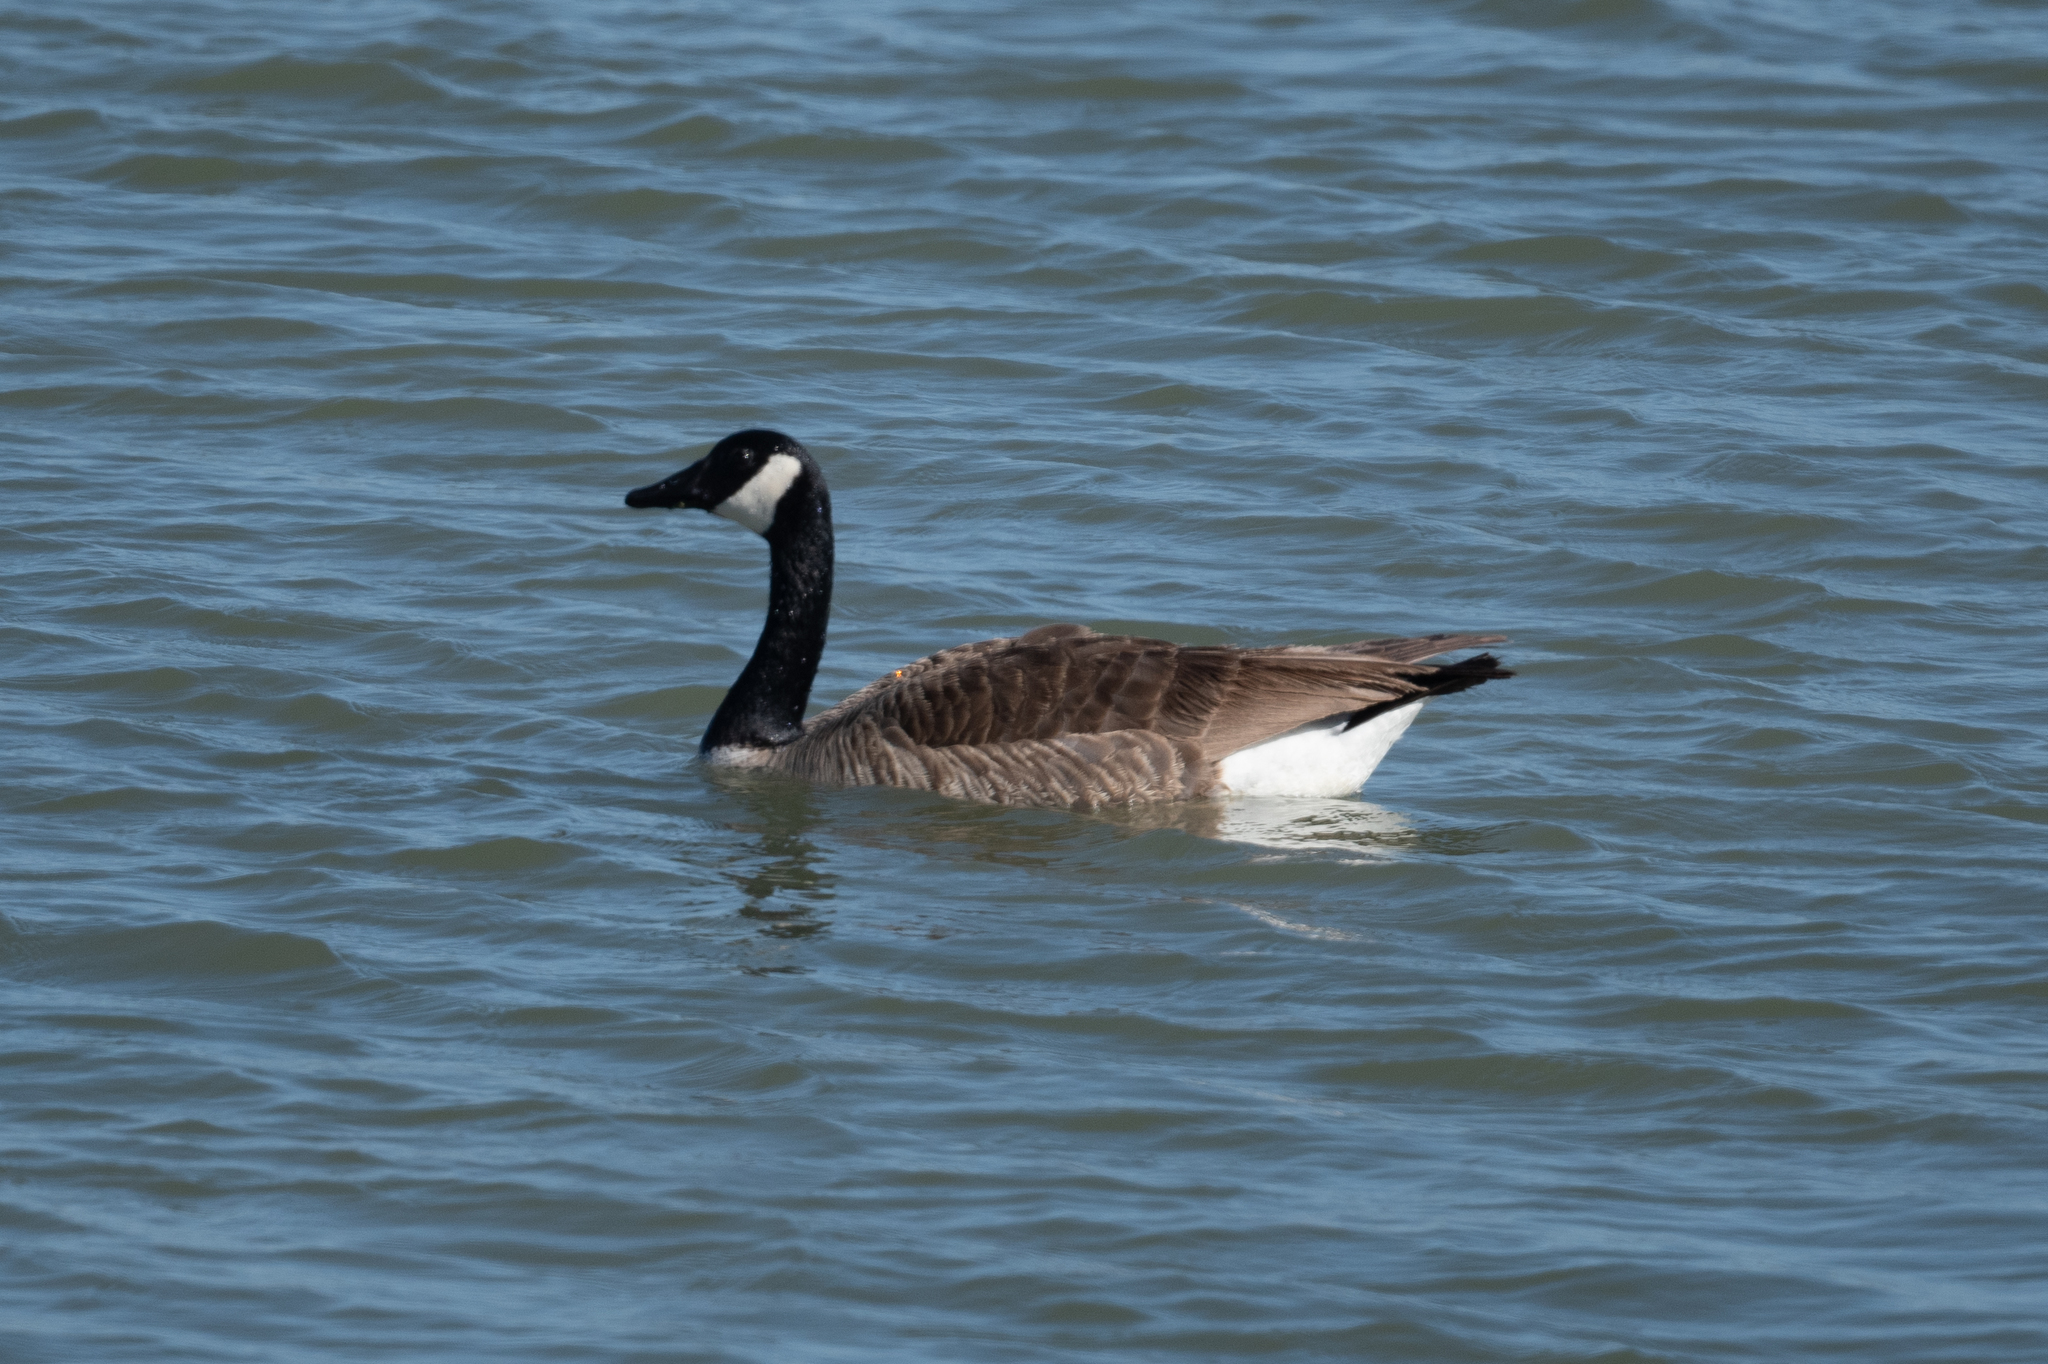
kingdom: Animalia
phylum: Chordata
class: Aves
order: Anseriformes
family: Anatidae
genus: Branta
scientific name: Branta canadensis
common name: Canada goose
